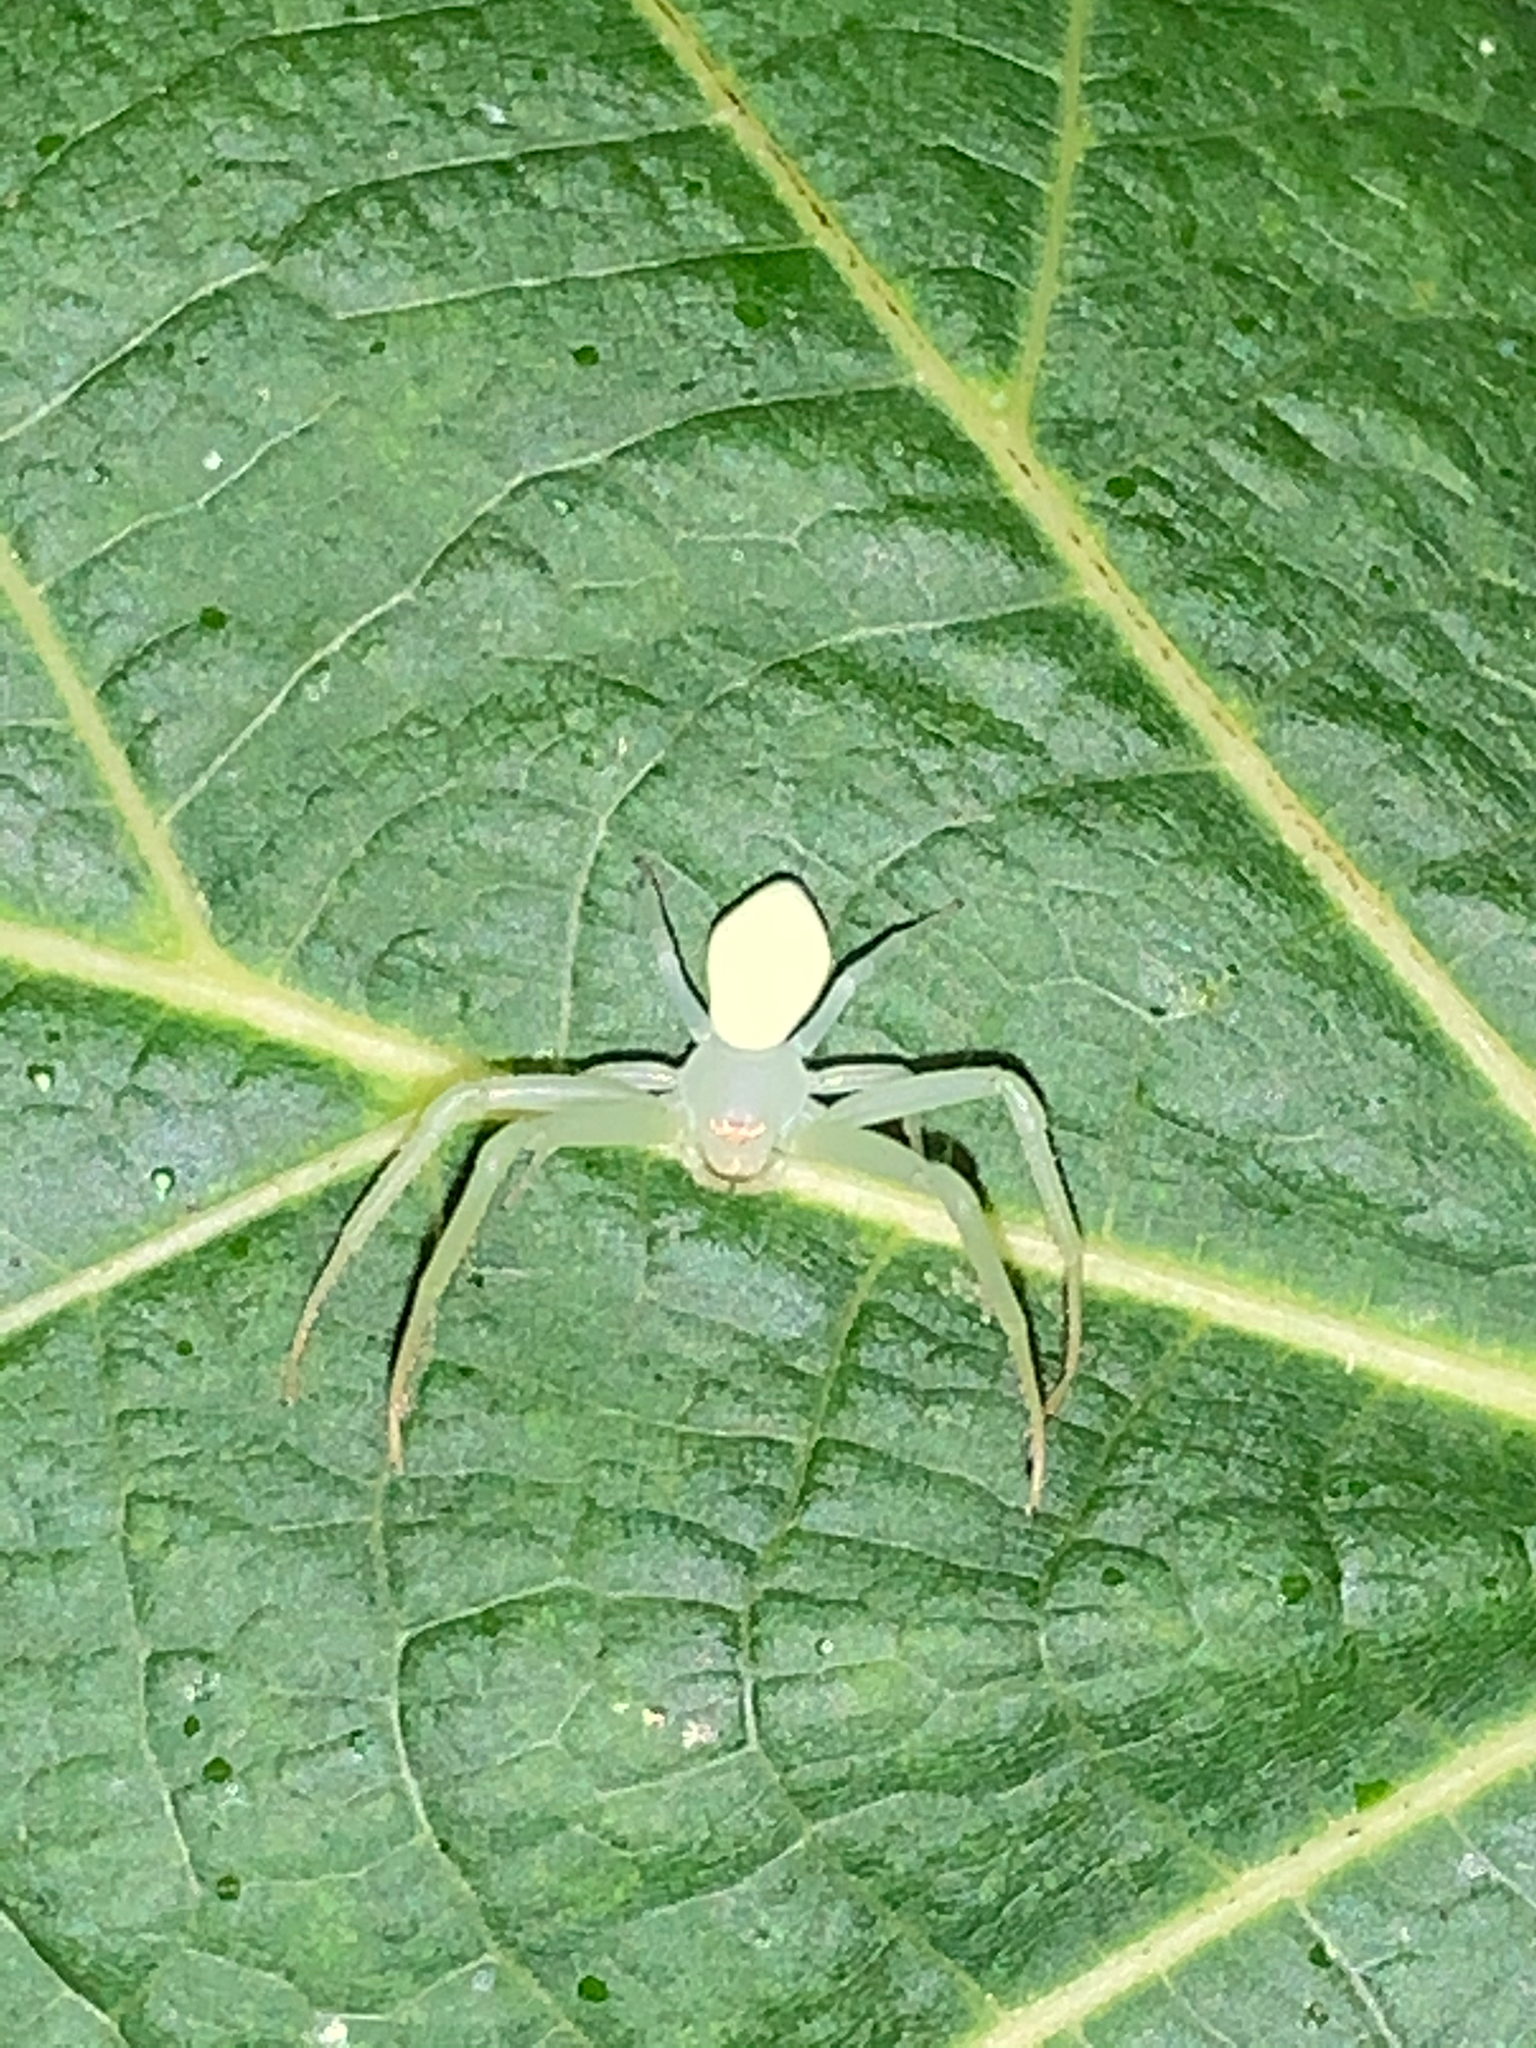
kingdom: Animalia
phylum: Arthropoda
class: Arachnida
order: Araneae
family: Thomisidae
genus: Misumessus
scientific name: Misumessus oblongus
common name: American green crab spider
